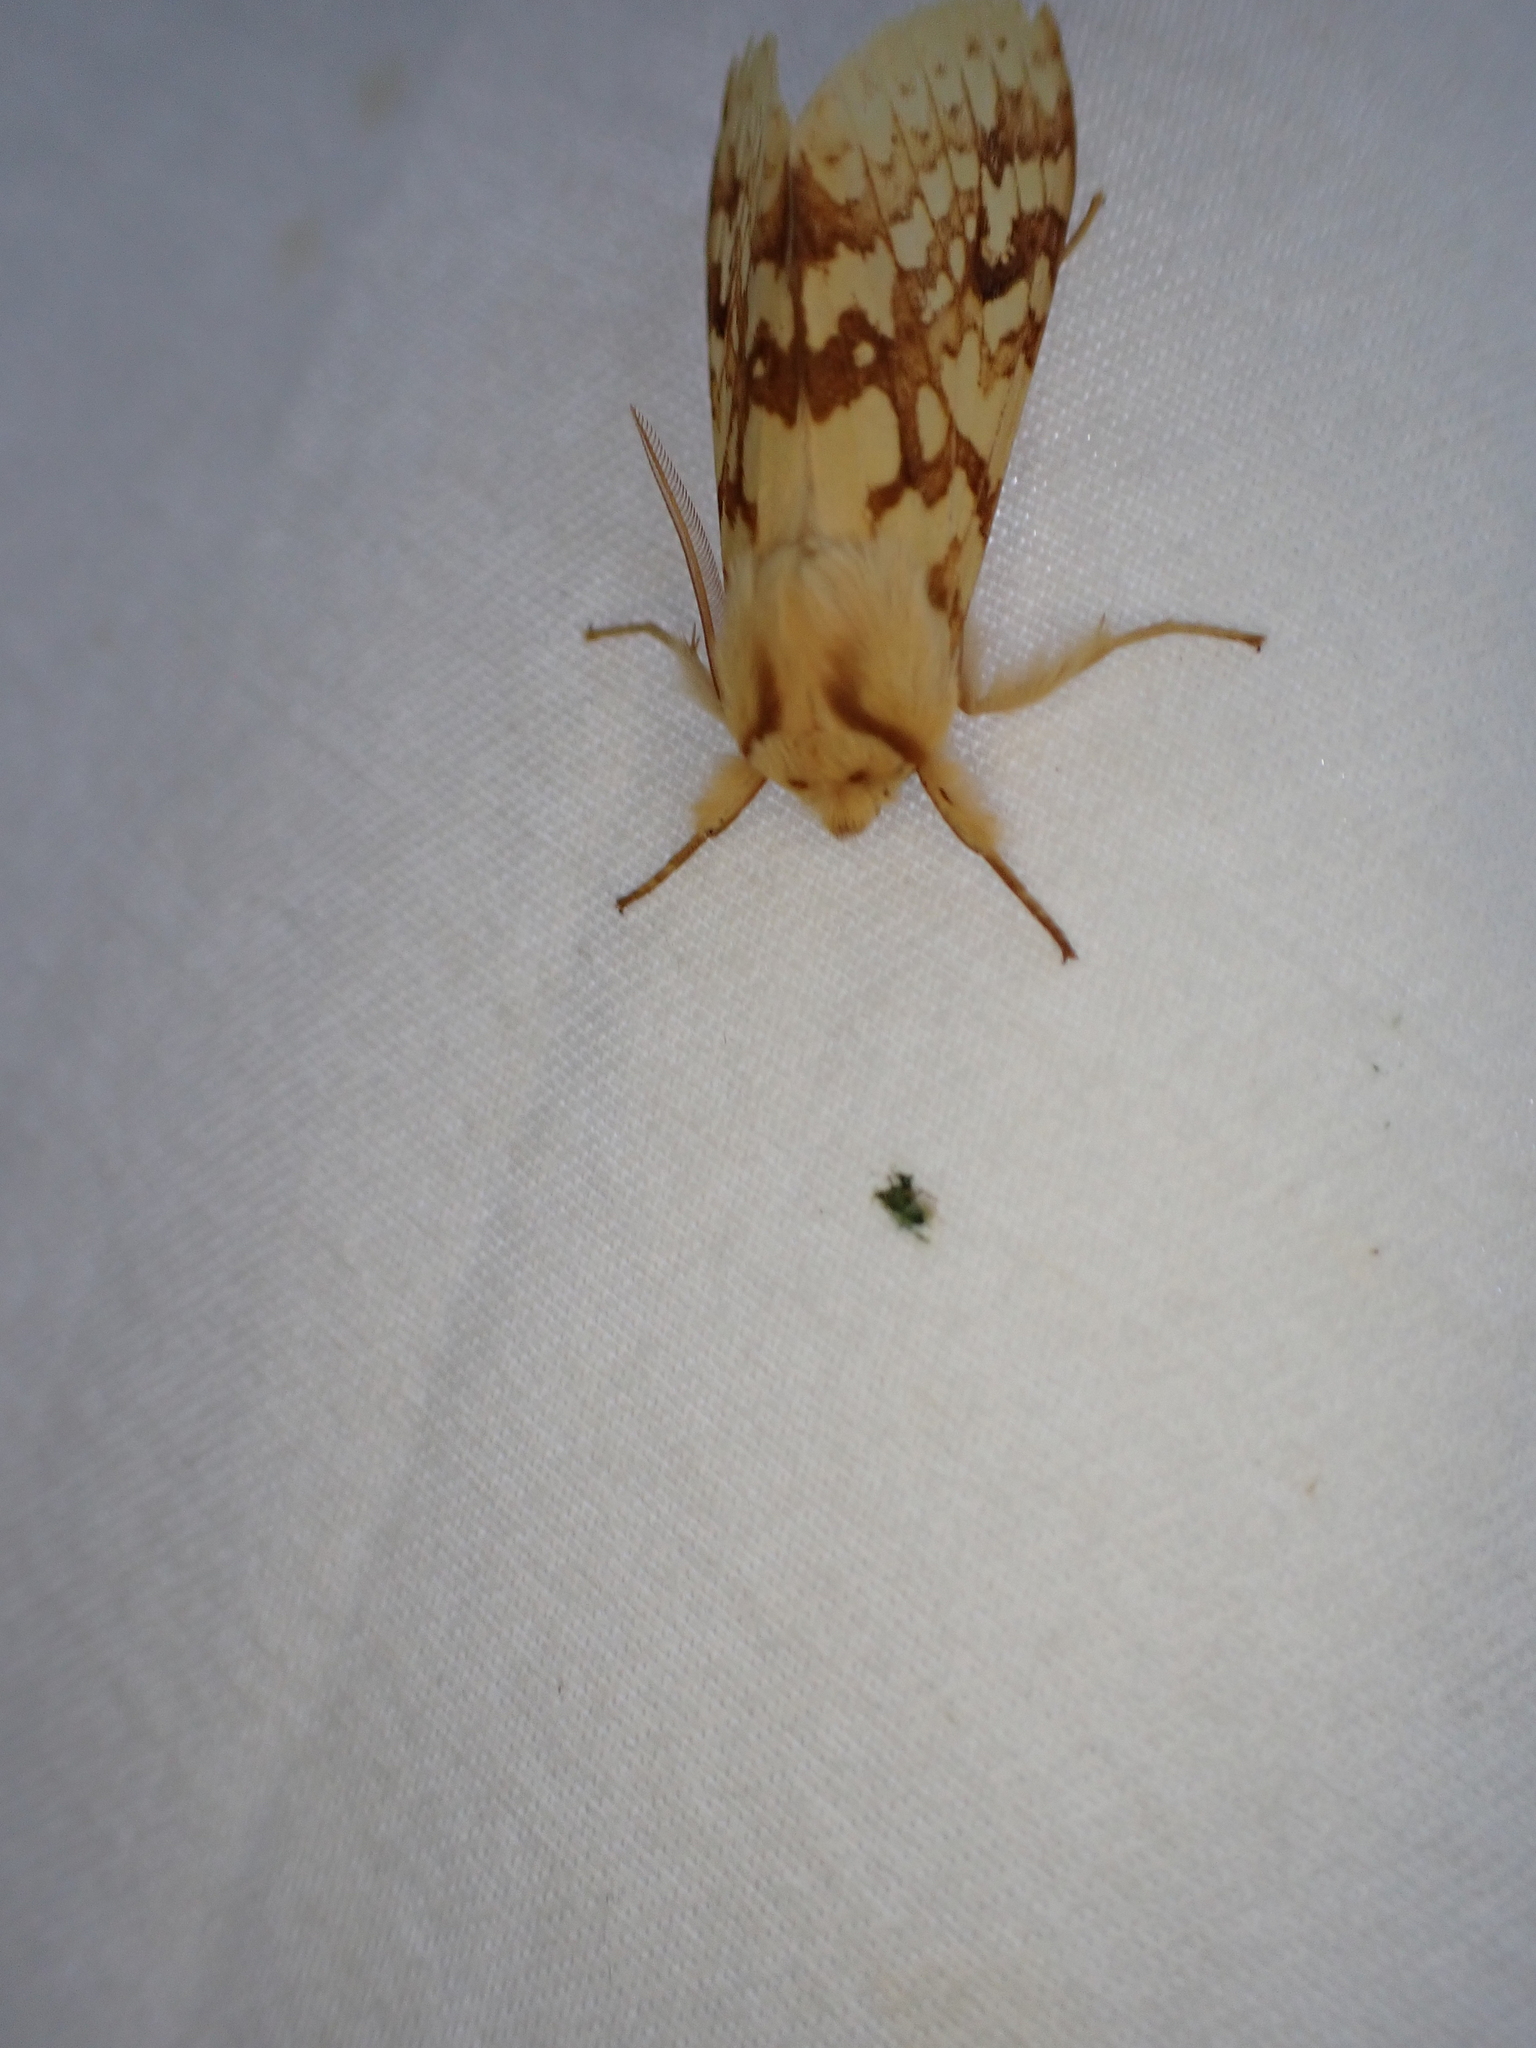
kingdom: Animalia
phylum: Arthropoda
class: Insecta
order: Lepidoptera
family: Erebidae
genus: Lophocampa
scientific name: Lophocampa maculata
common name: Spotted tussock moth
